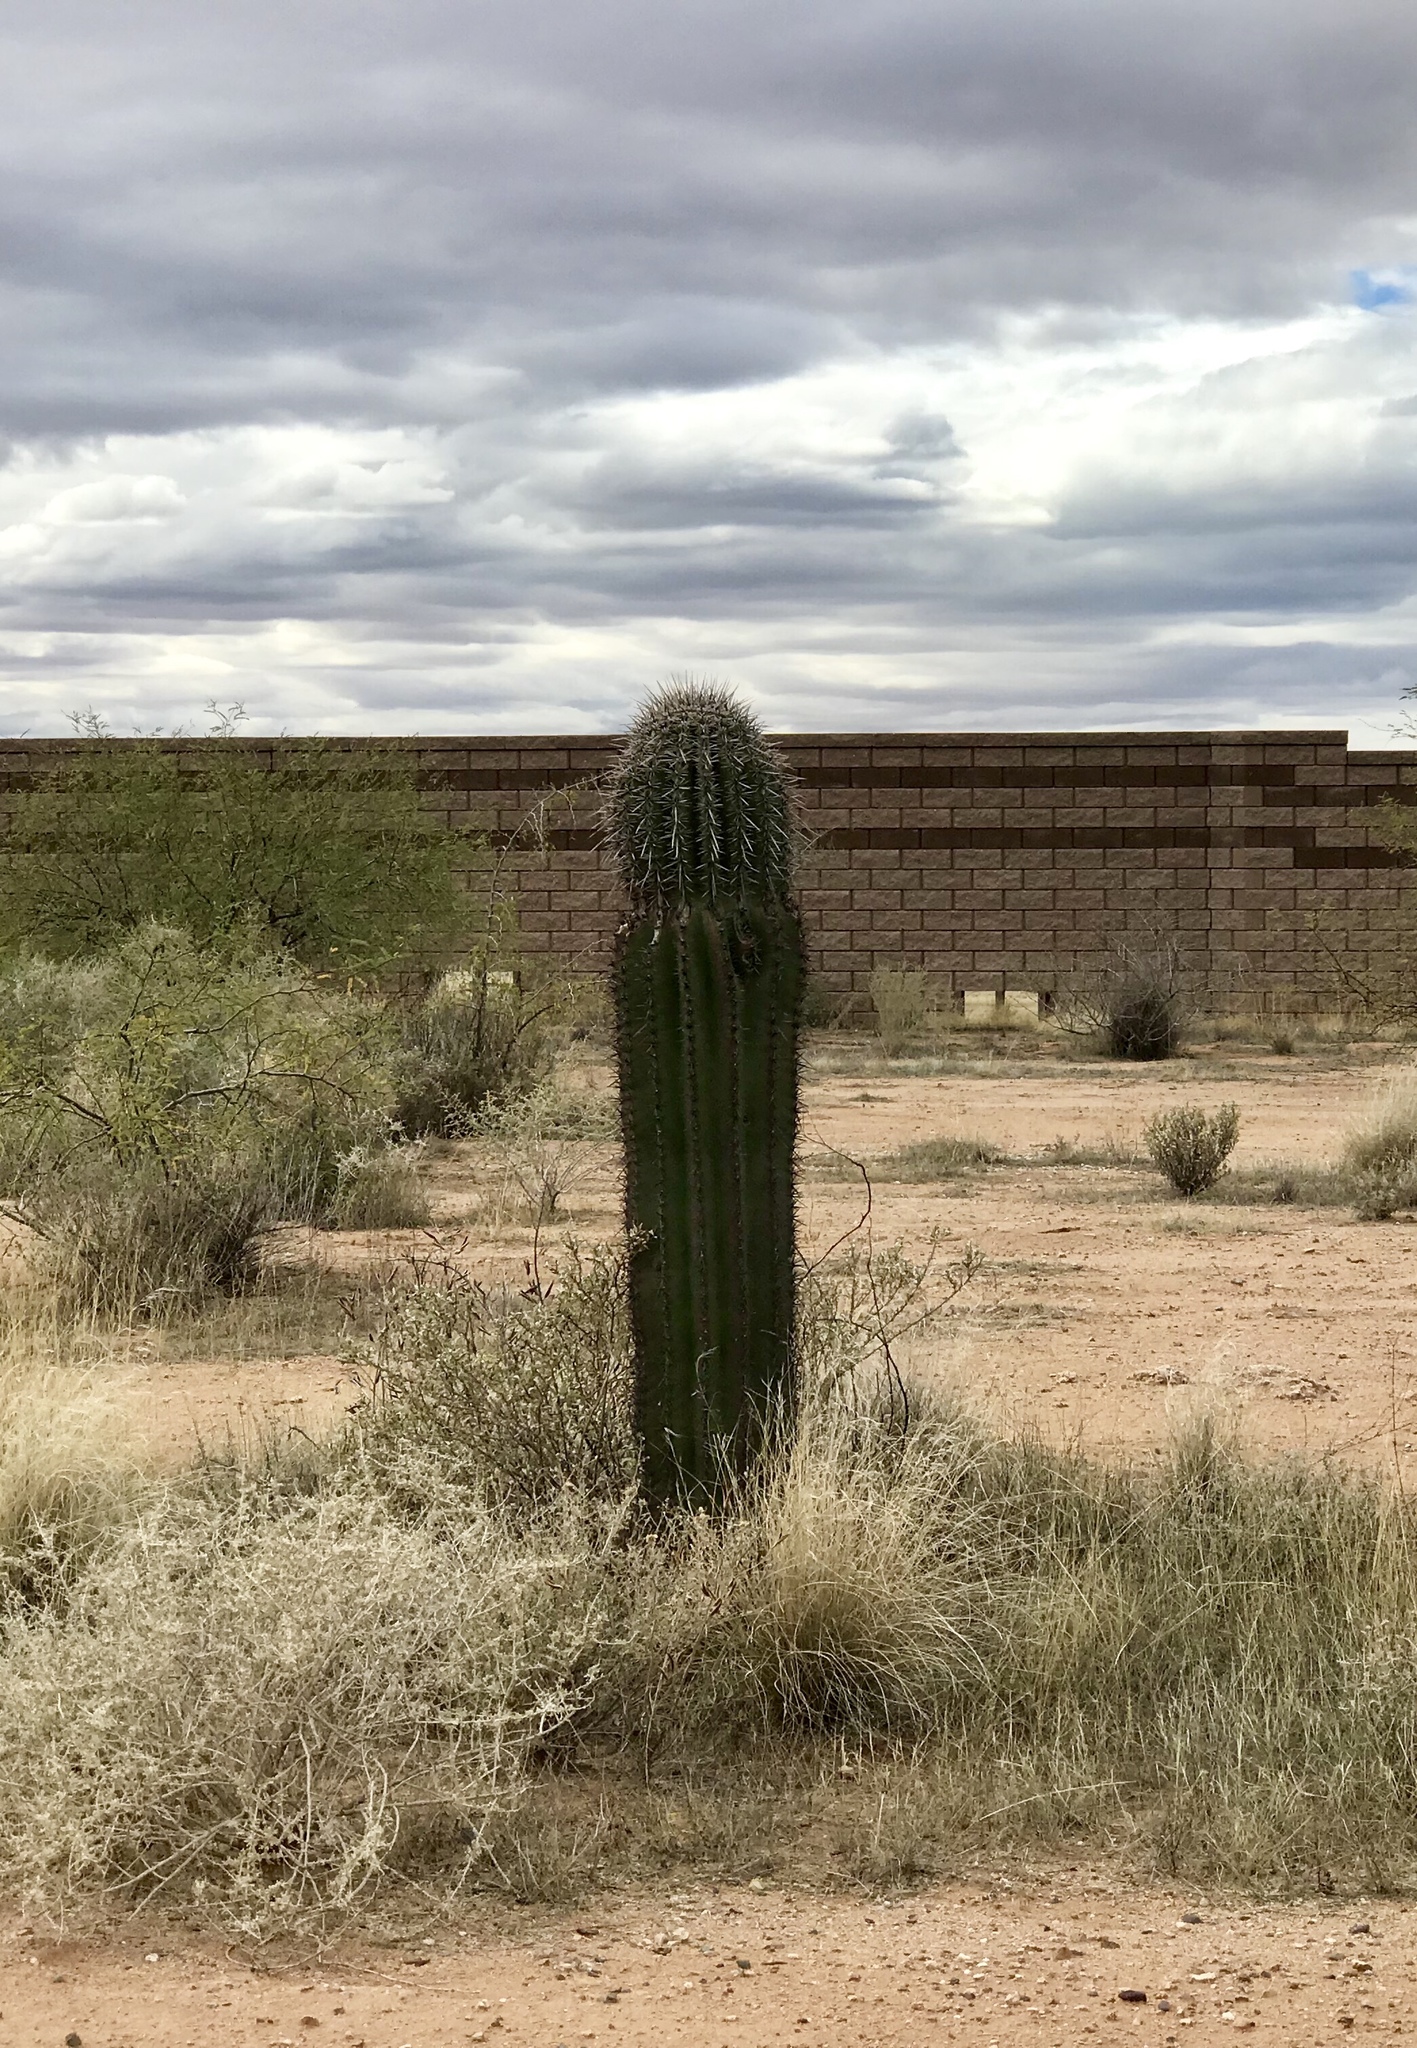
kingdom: Plantae
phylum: Tracheophyta
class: Magnoliopsida
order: Caryophyllales
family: Cactaceae
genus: Carnegiea
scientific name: Carnegiea gigantea
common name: Saguaro
